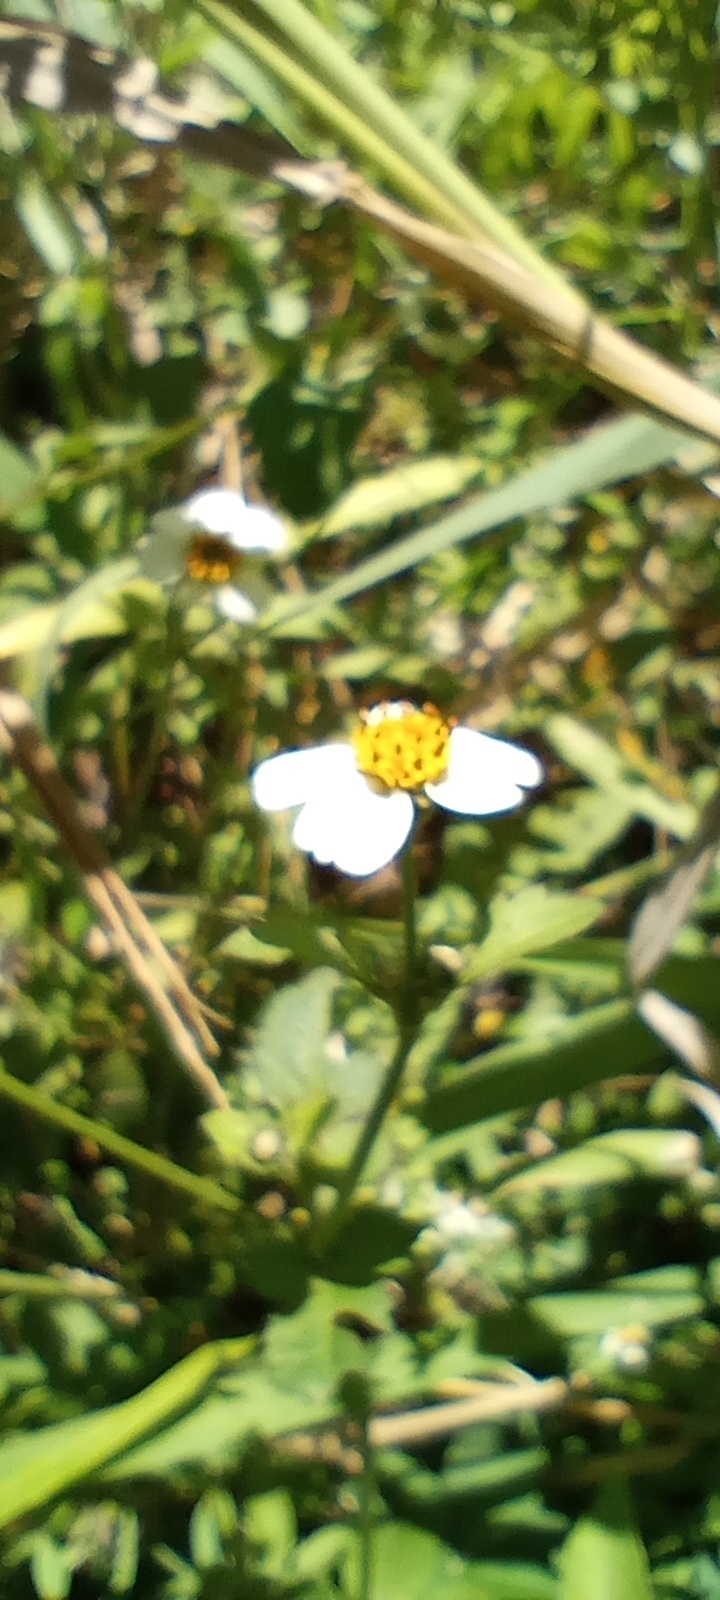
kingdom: Plantae
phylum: Tracheophyta
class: Magnoliopsida
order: Asterales
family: Asteraceae
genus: Bidens
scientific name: Bidens pilosa
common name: Black-jack
